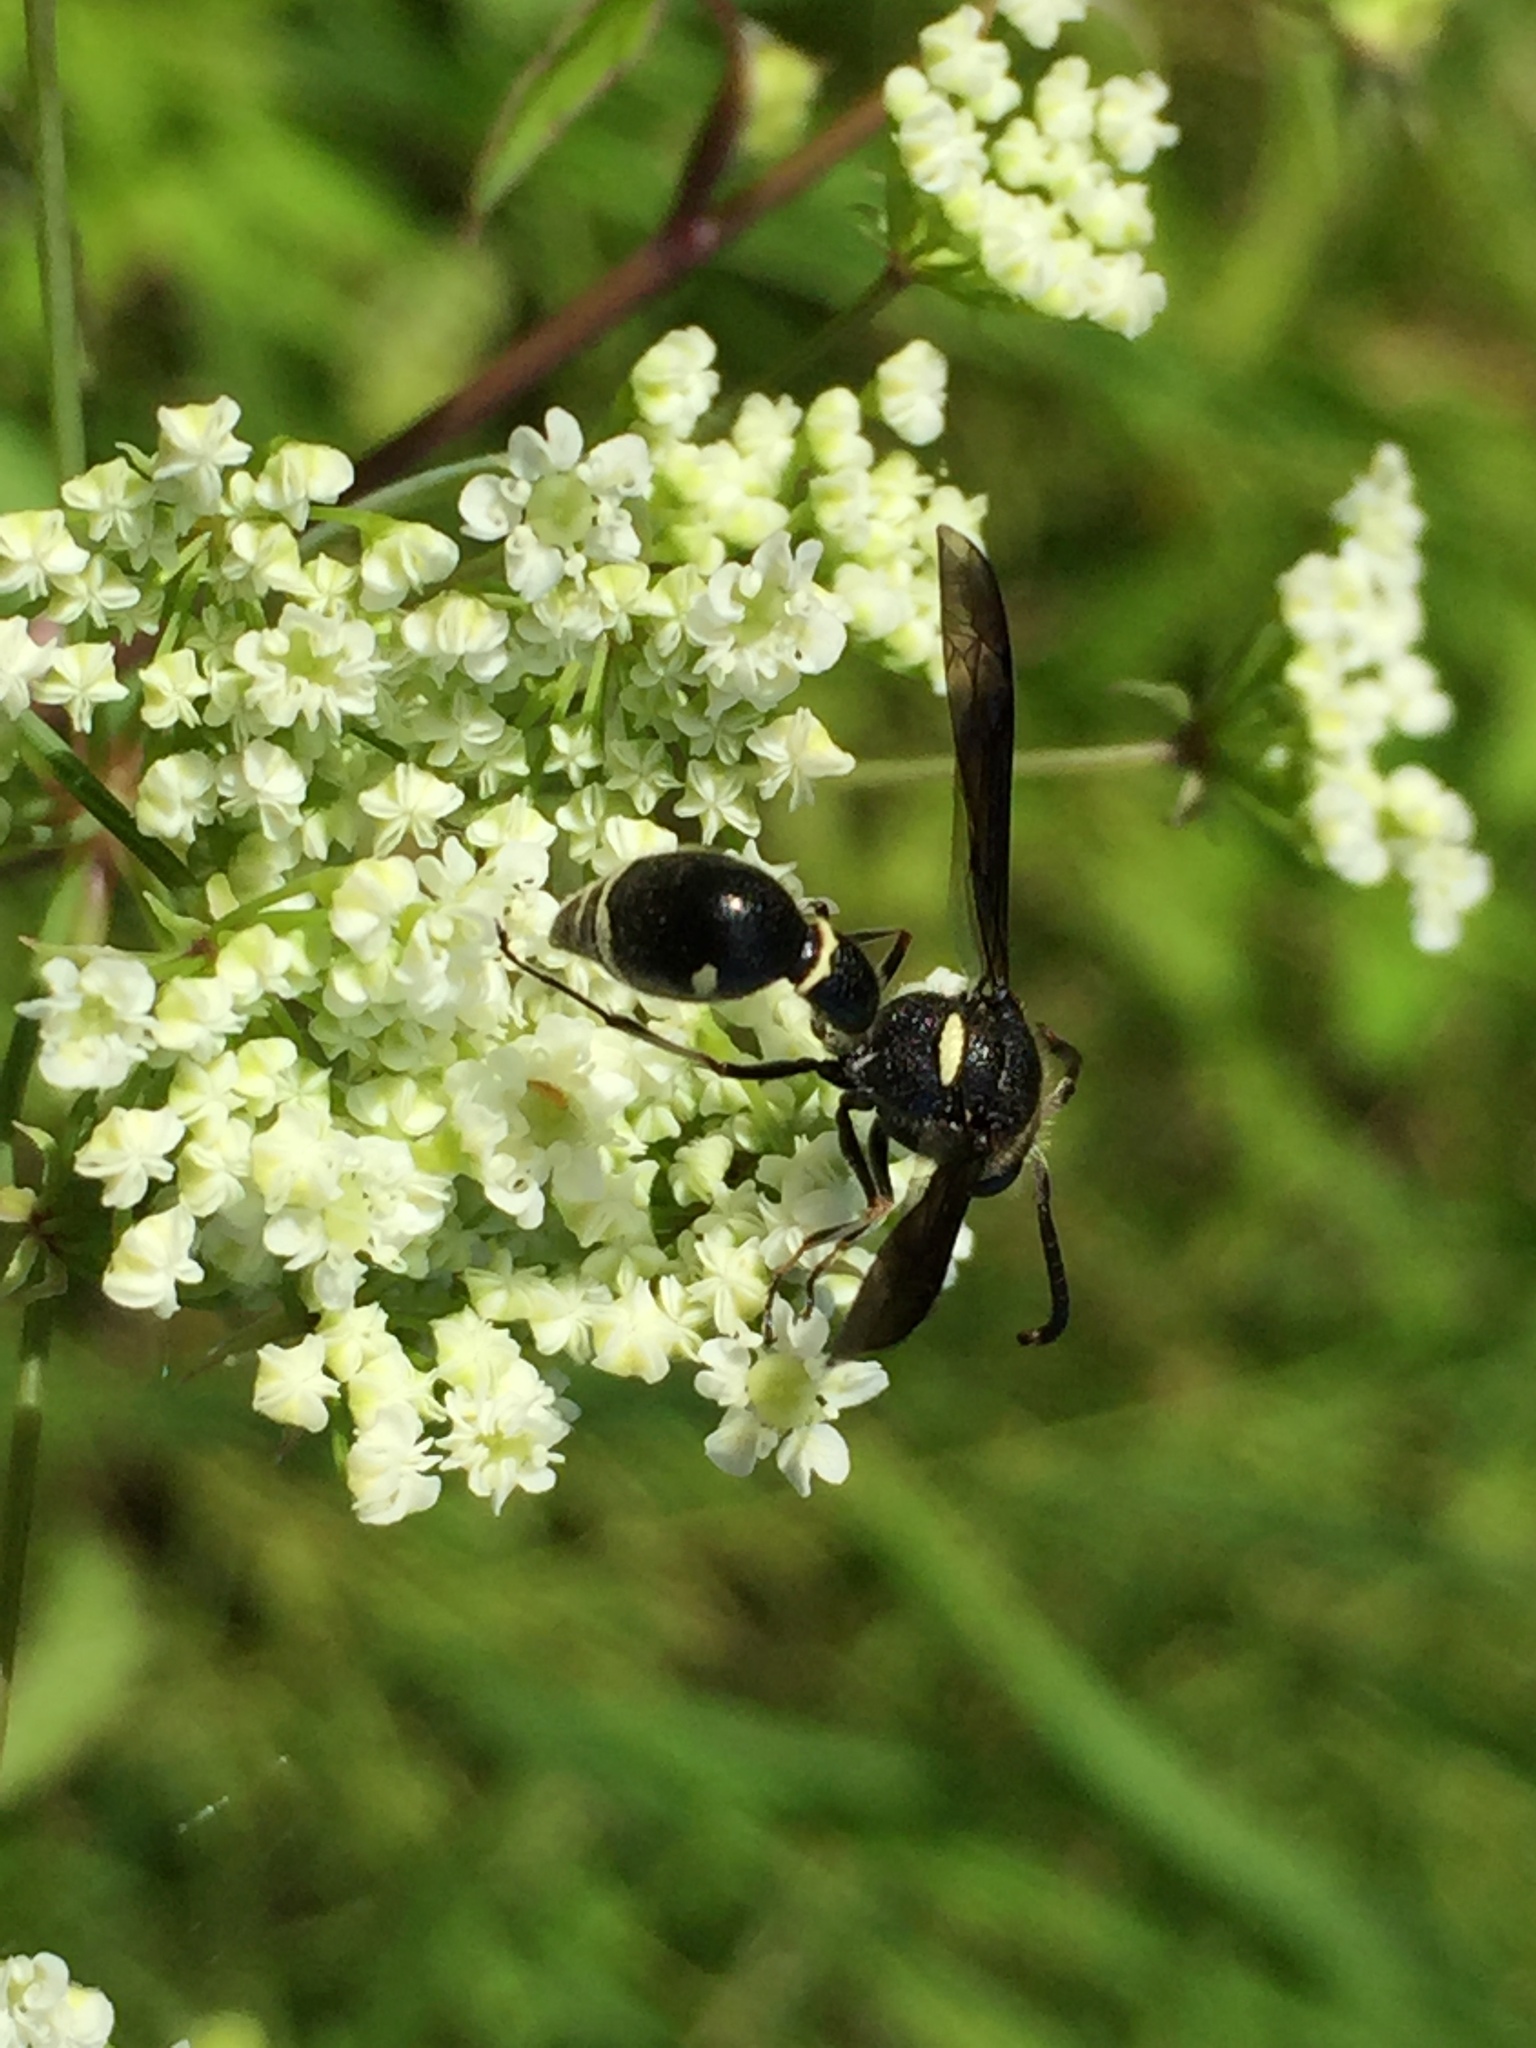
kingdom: Animalia
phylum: Arthropoda
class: Insecta
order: Hymenoptera
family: Vespidae
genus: Eumenes
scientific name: Eumenes fraternus
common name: Fraternal potter wasp
